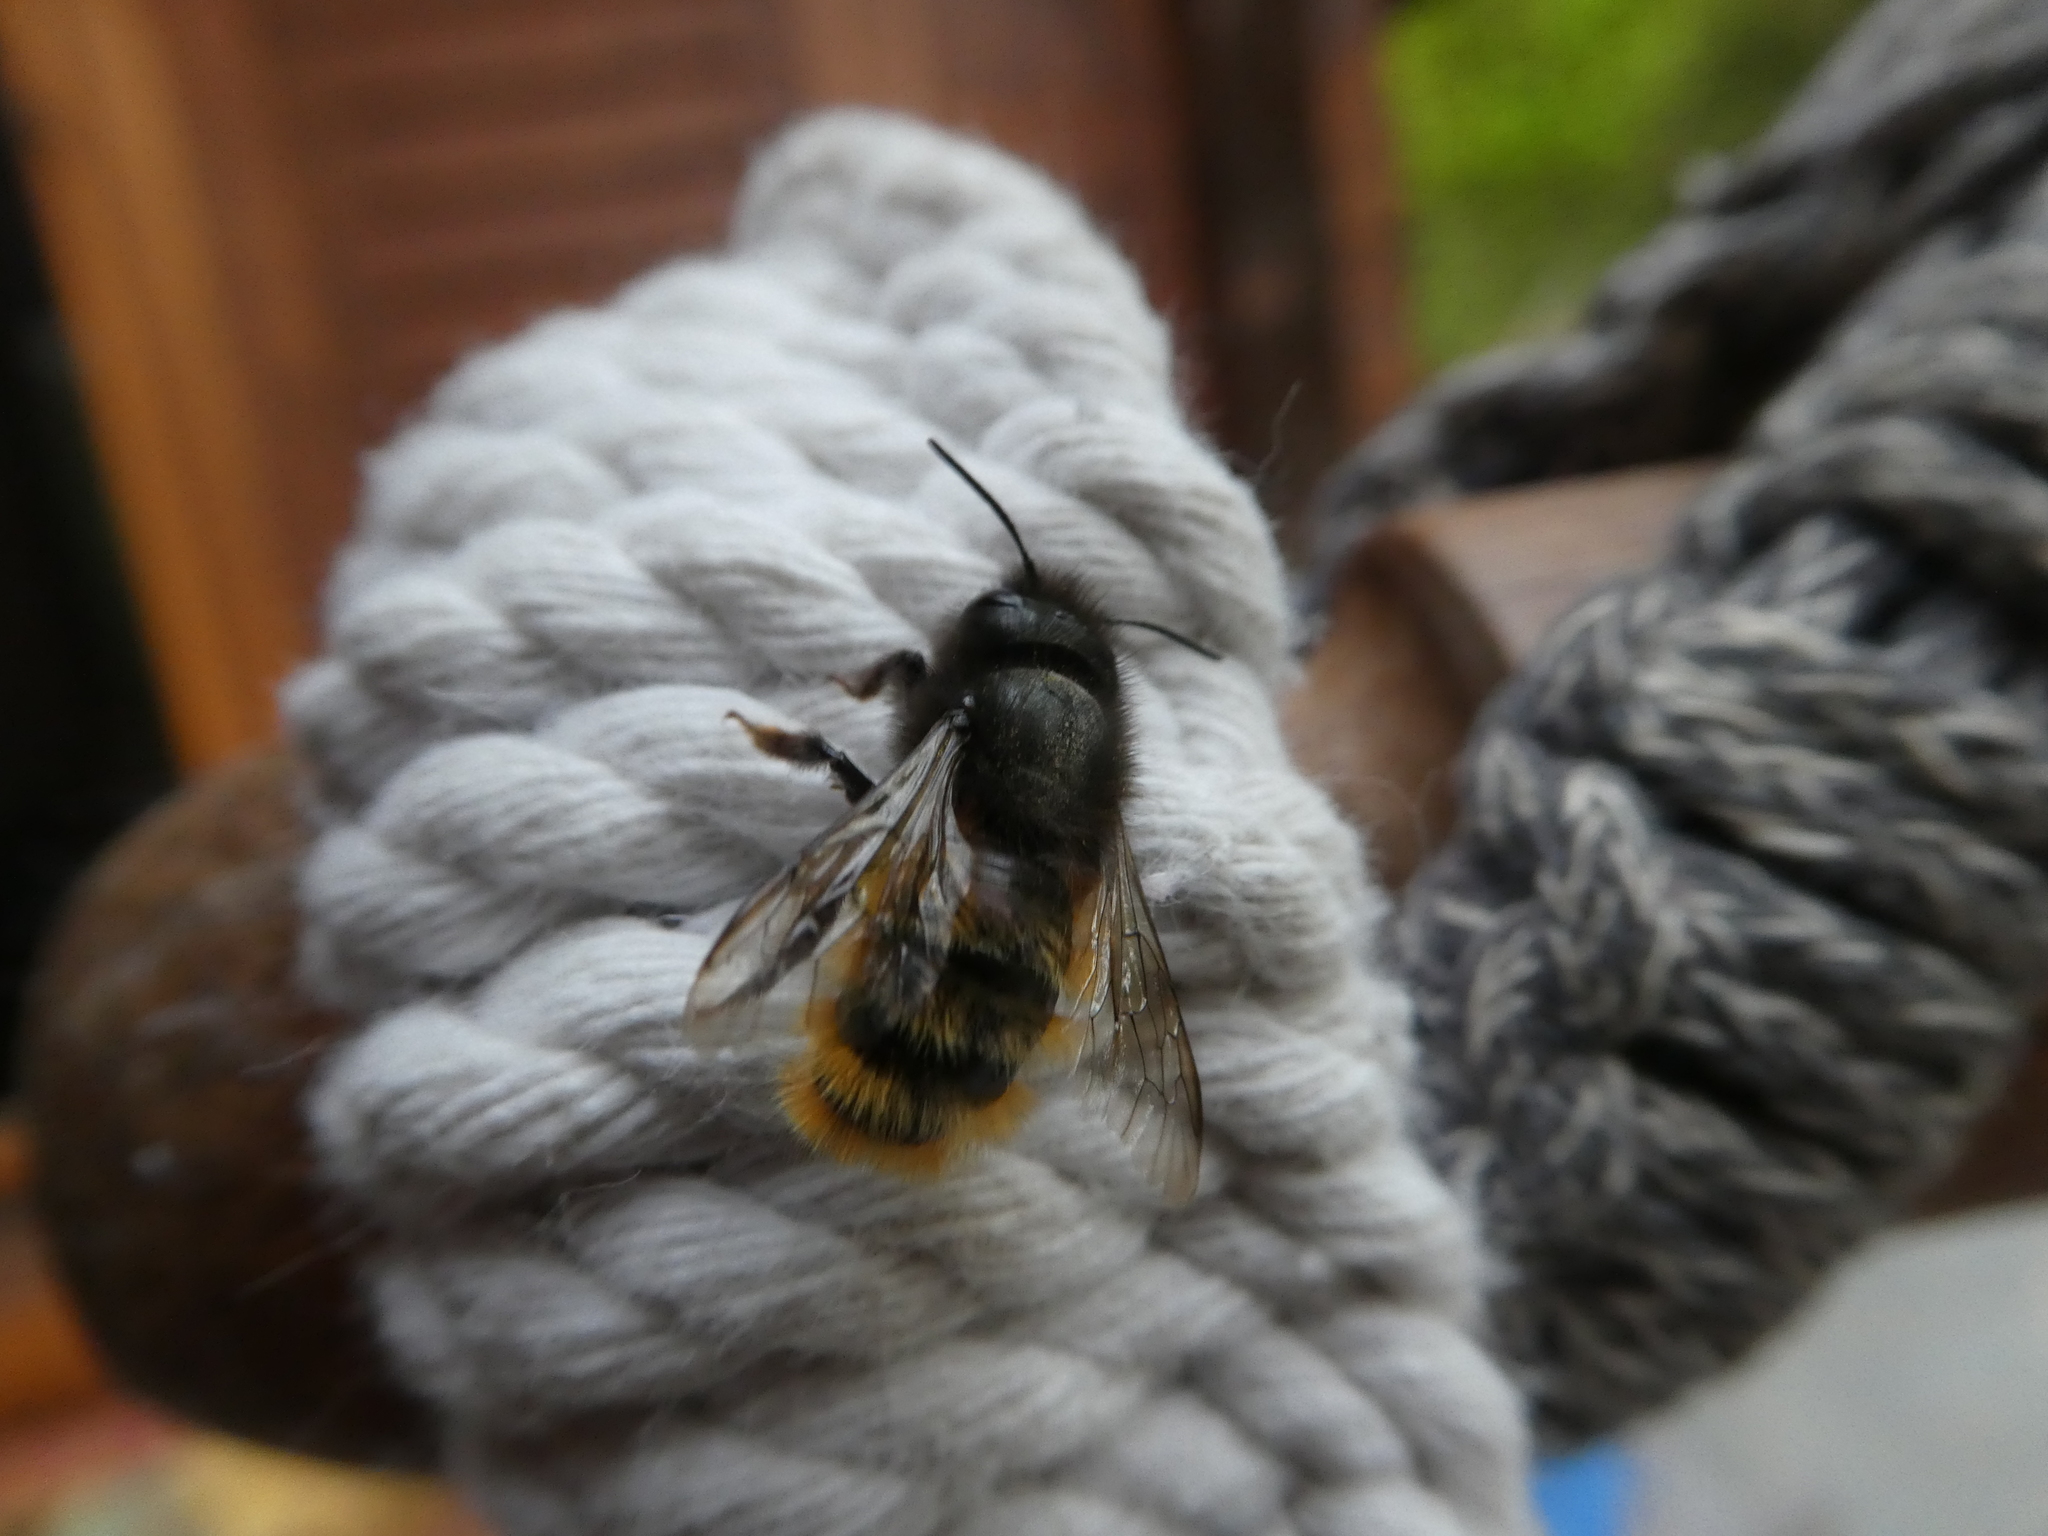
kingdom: Animalia
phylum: Arthropoda
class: Insecta
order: Hymenoptera
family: Megachilidae
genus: Osmia
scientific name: Osmia cornuta
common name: Mason bee
